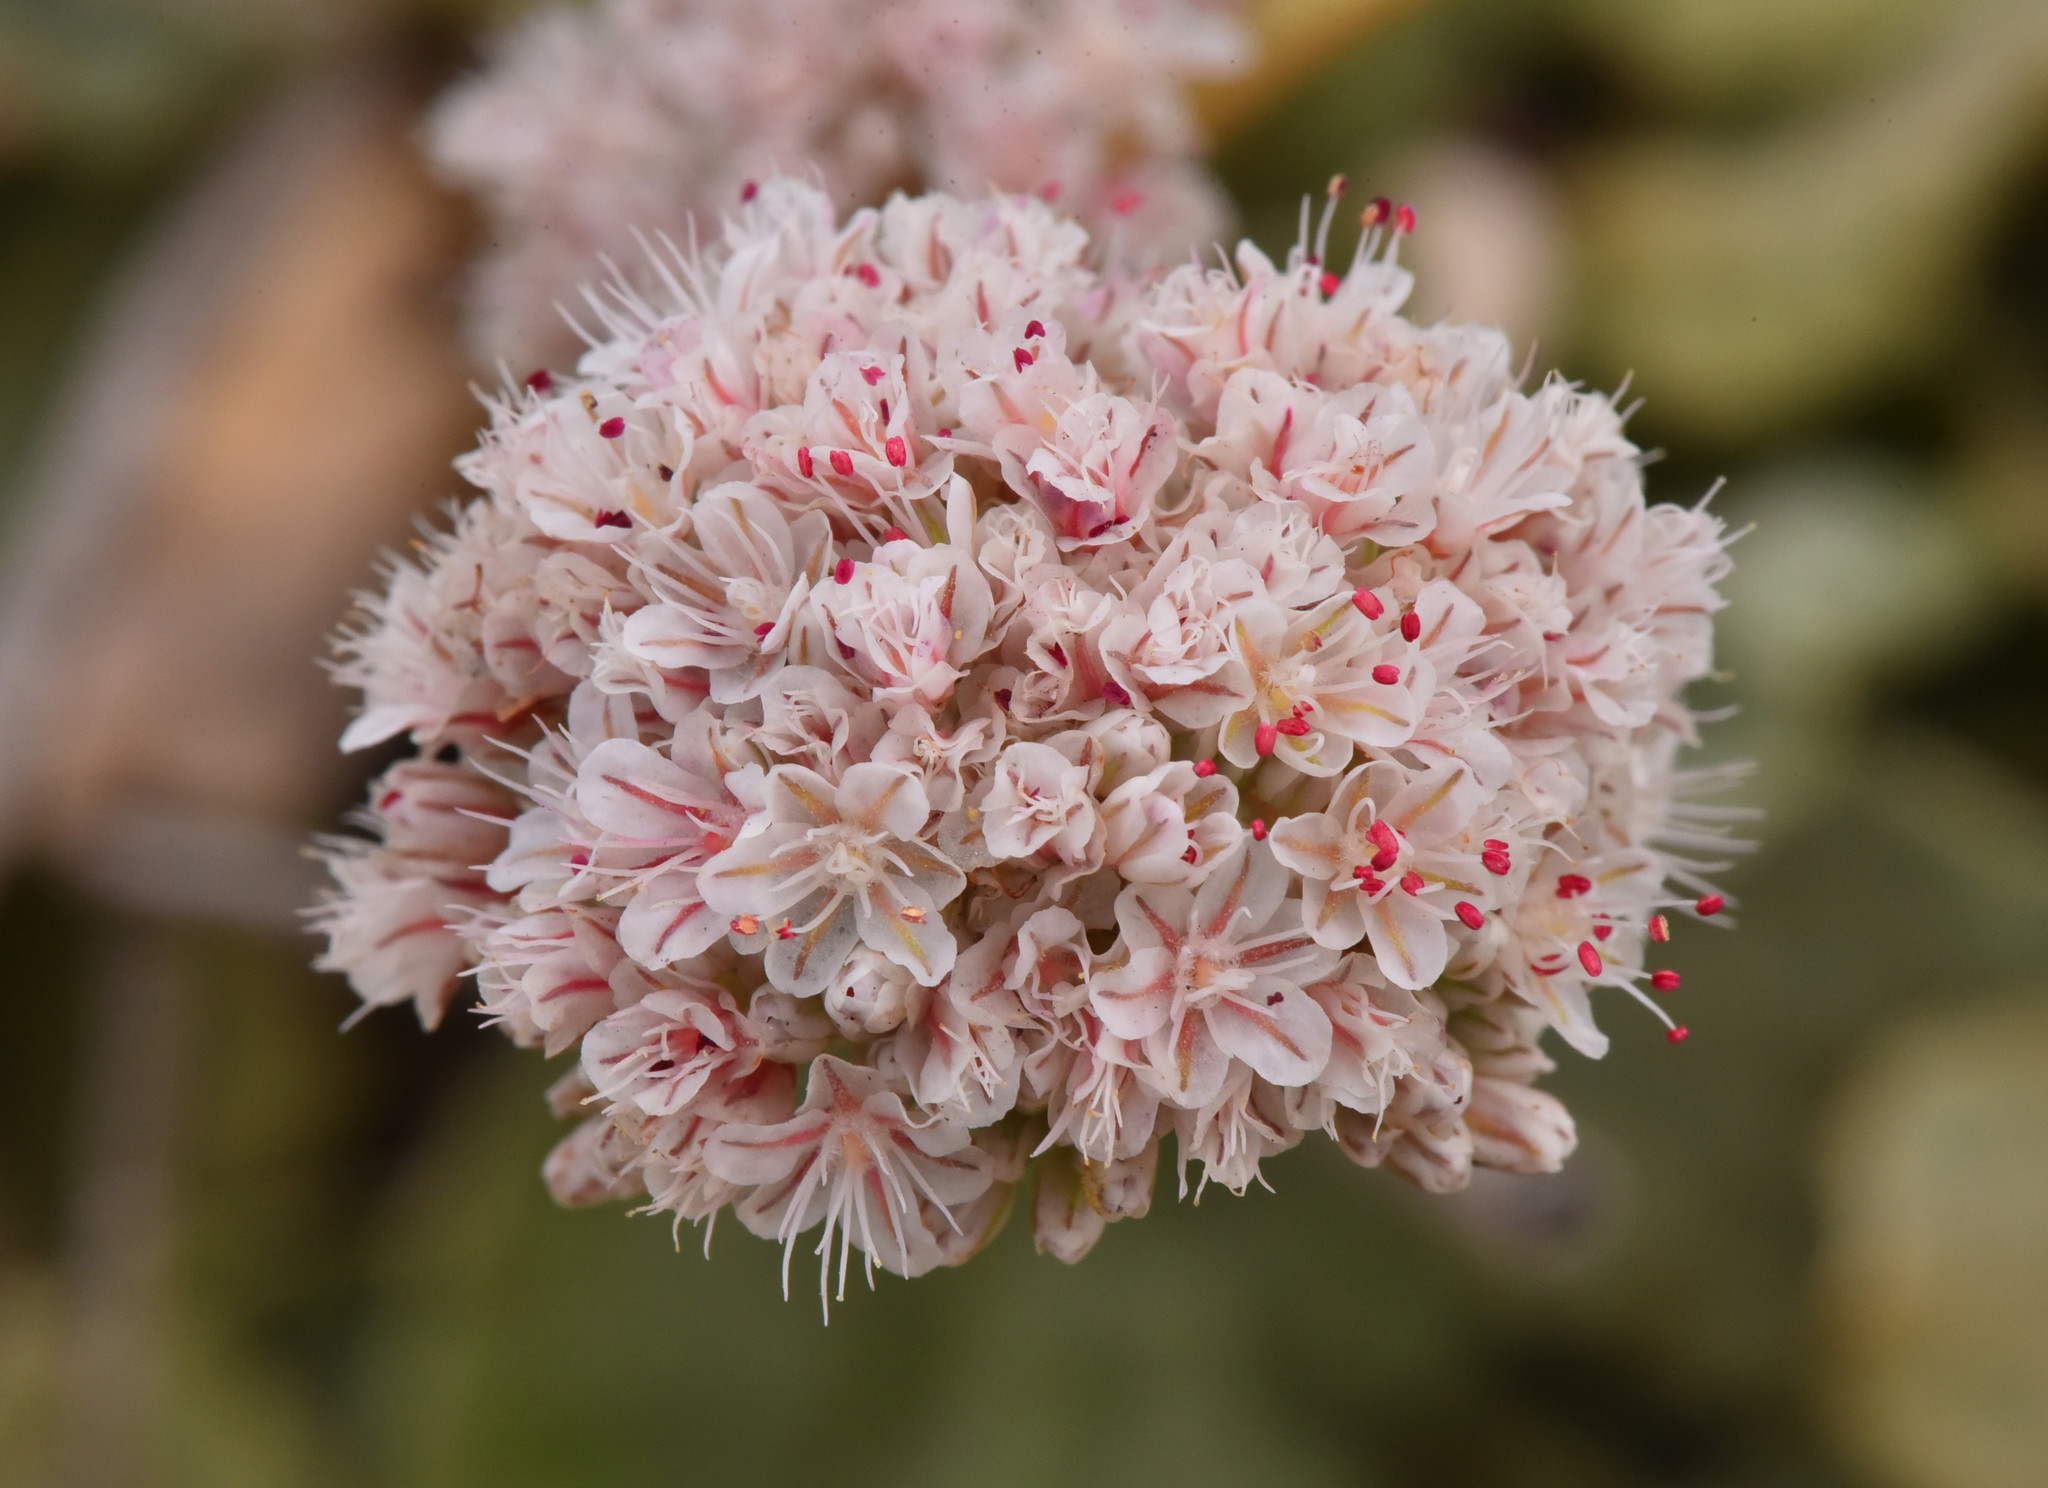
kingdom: Plantae
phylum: Tracheophyta
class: Magnoliopsida
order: Caryophyllales
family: Polygonaceae
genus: Eriogonum
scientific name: Eriogonum latifolium
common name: Seaside wild buckwheat
